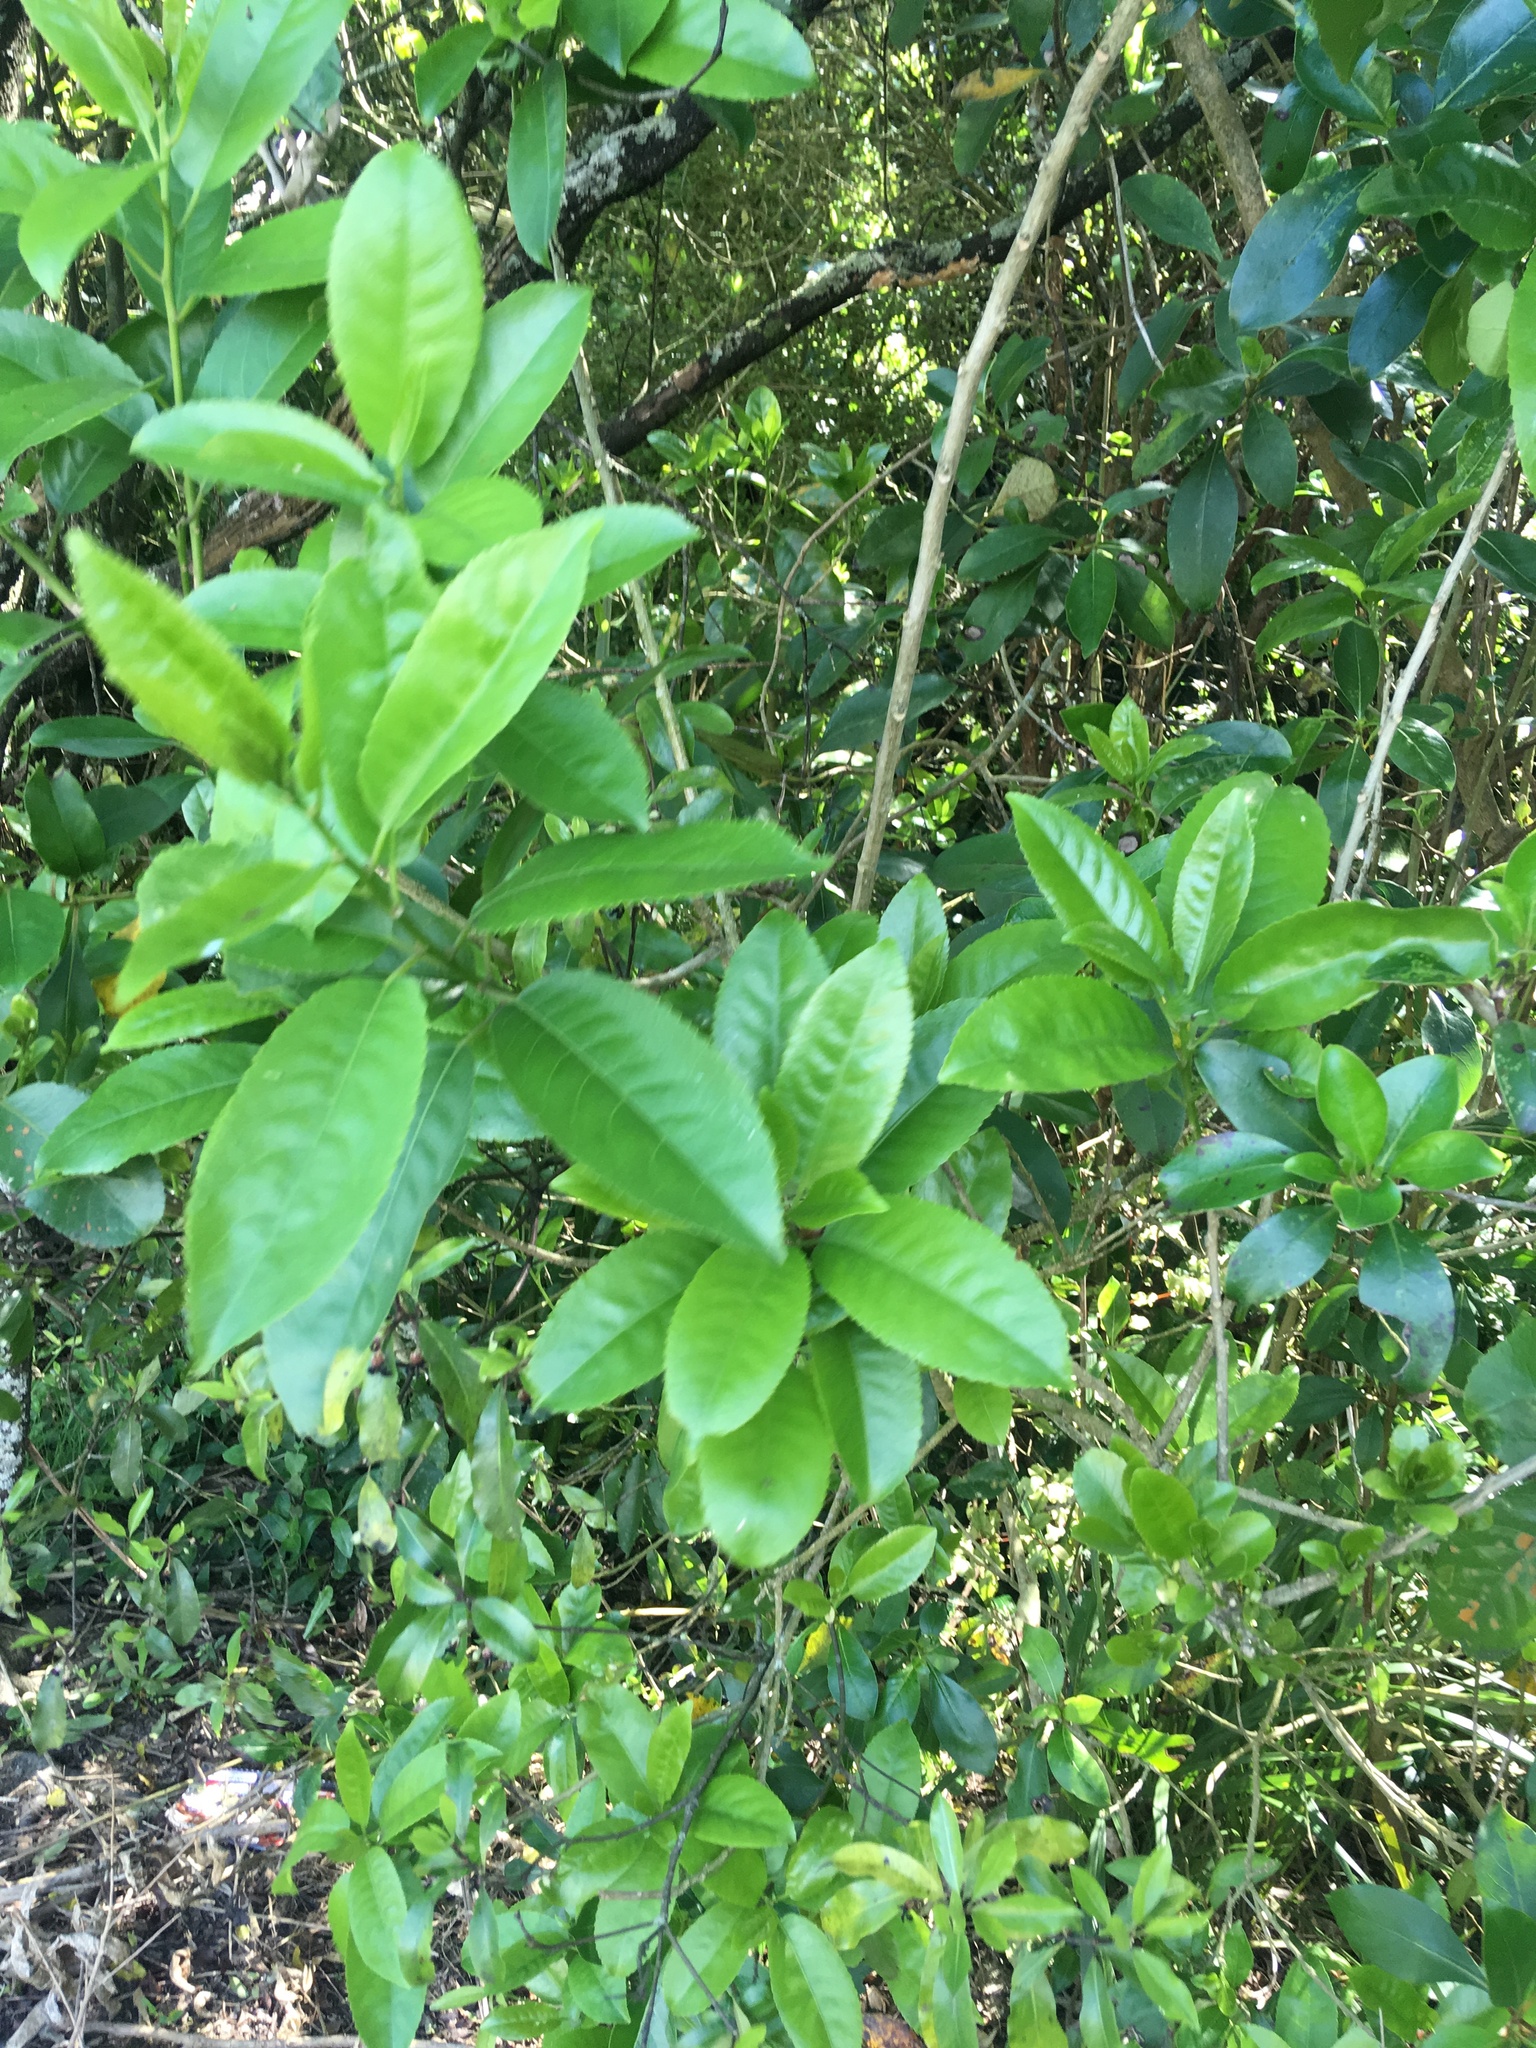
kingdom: Plantae
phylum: Tracheophyta
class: Magnoliopsida
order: Malpighiales
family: Violaceae
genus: Melicytus
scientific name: Melicytus ramiflorus
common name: Mahoe
